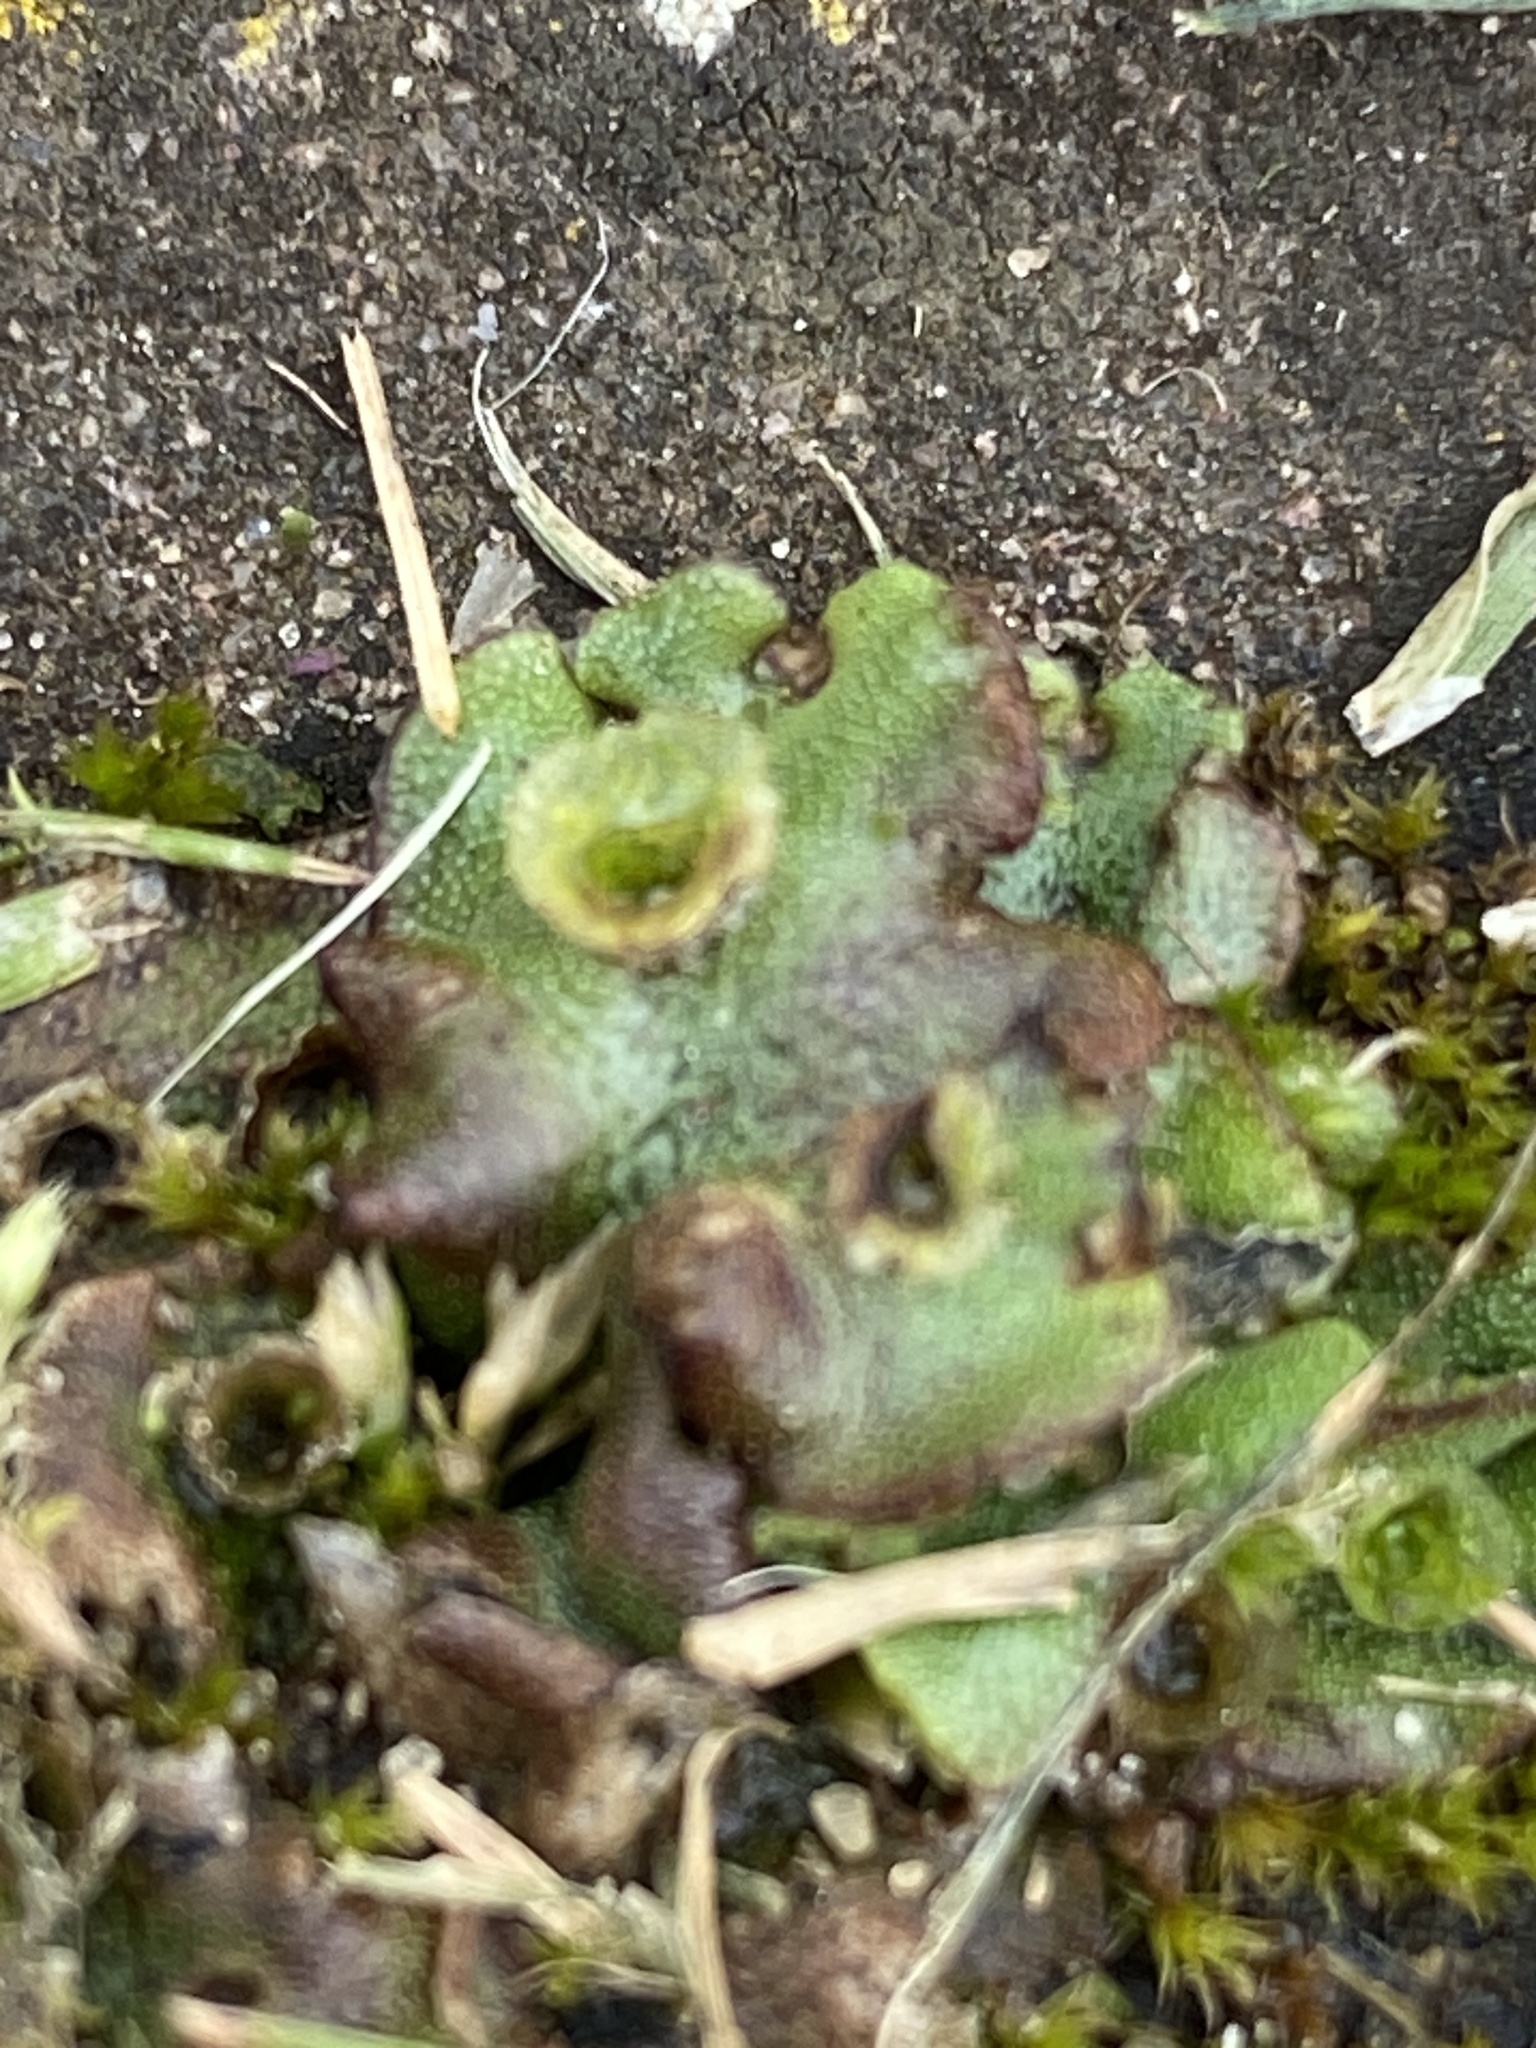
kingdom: Plantae
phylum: Marchantiophyta
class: Marchantiopsida
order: Marchantiales
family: Marchantiaceae
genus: Marchantia
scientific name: Marchantia polymorpha
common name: Common liverwort
